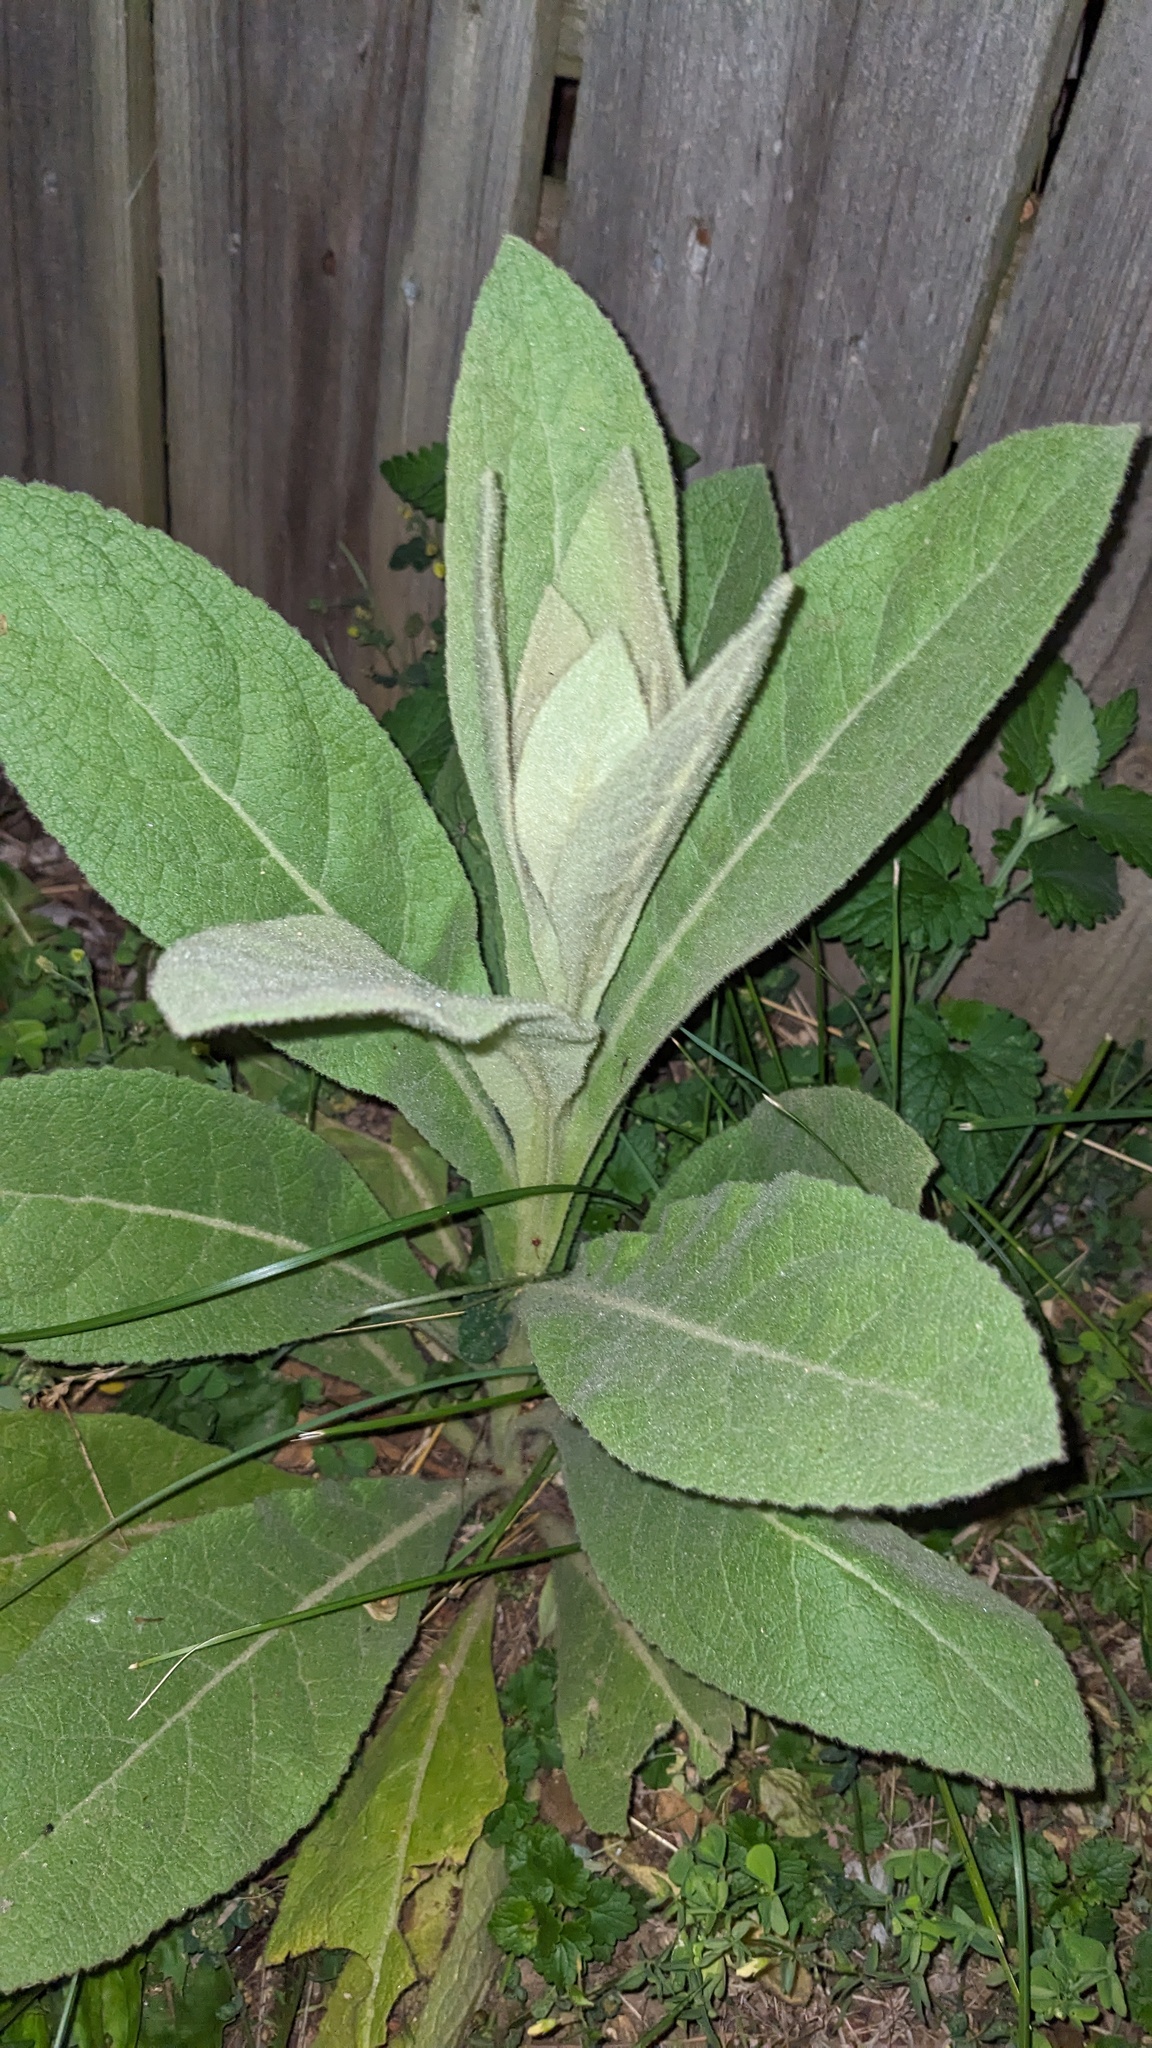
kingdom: Plantae
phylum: Tracheophyta
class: Magnoliopsida
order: Lamiales
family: Scrophulariaceae
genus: Verbascum
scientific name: Verbascum thapsus
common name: Common mullein
